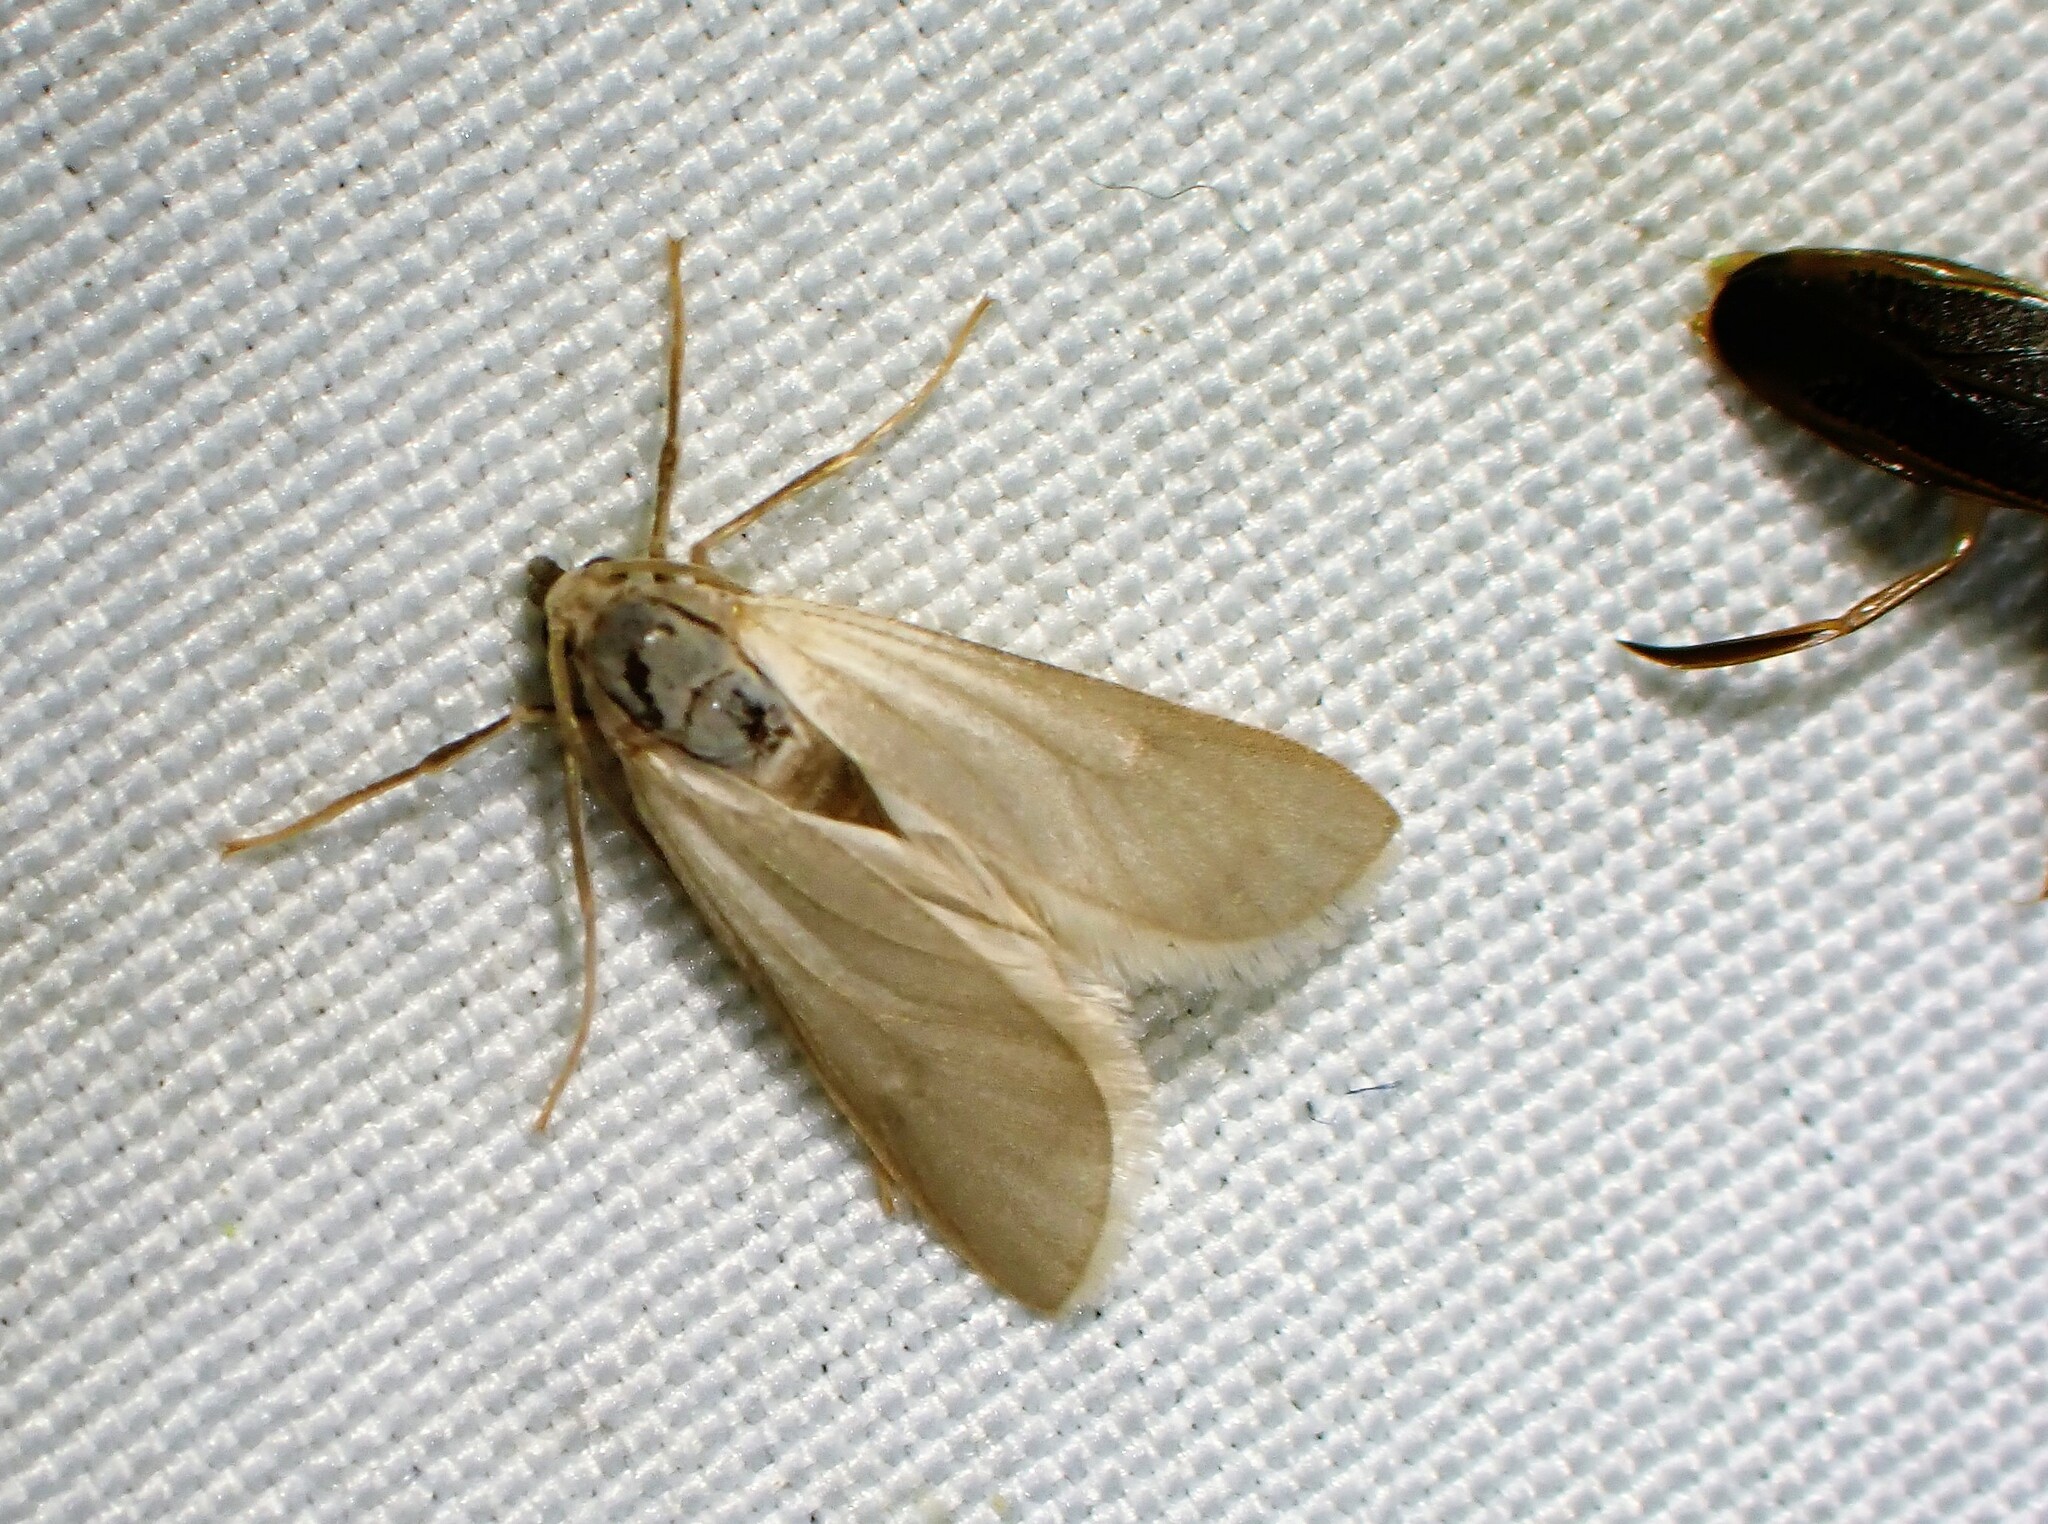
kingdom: Animalia
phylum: Arthropoda
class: Insecta
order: Lepidoptera
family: Crambidae
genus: Acentria
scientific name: Acentria ephemerella
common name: European water moth
